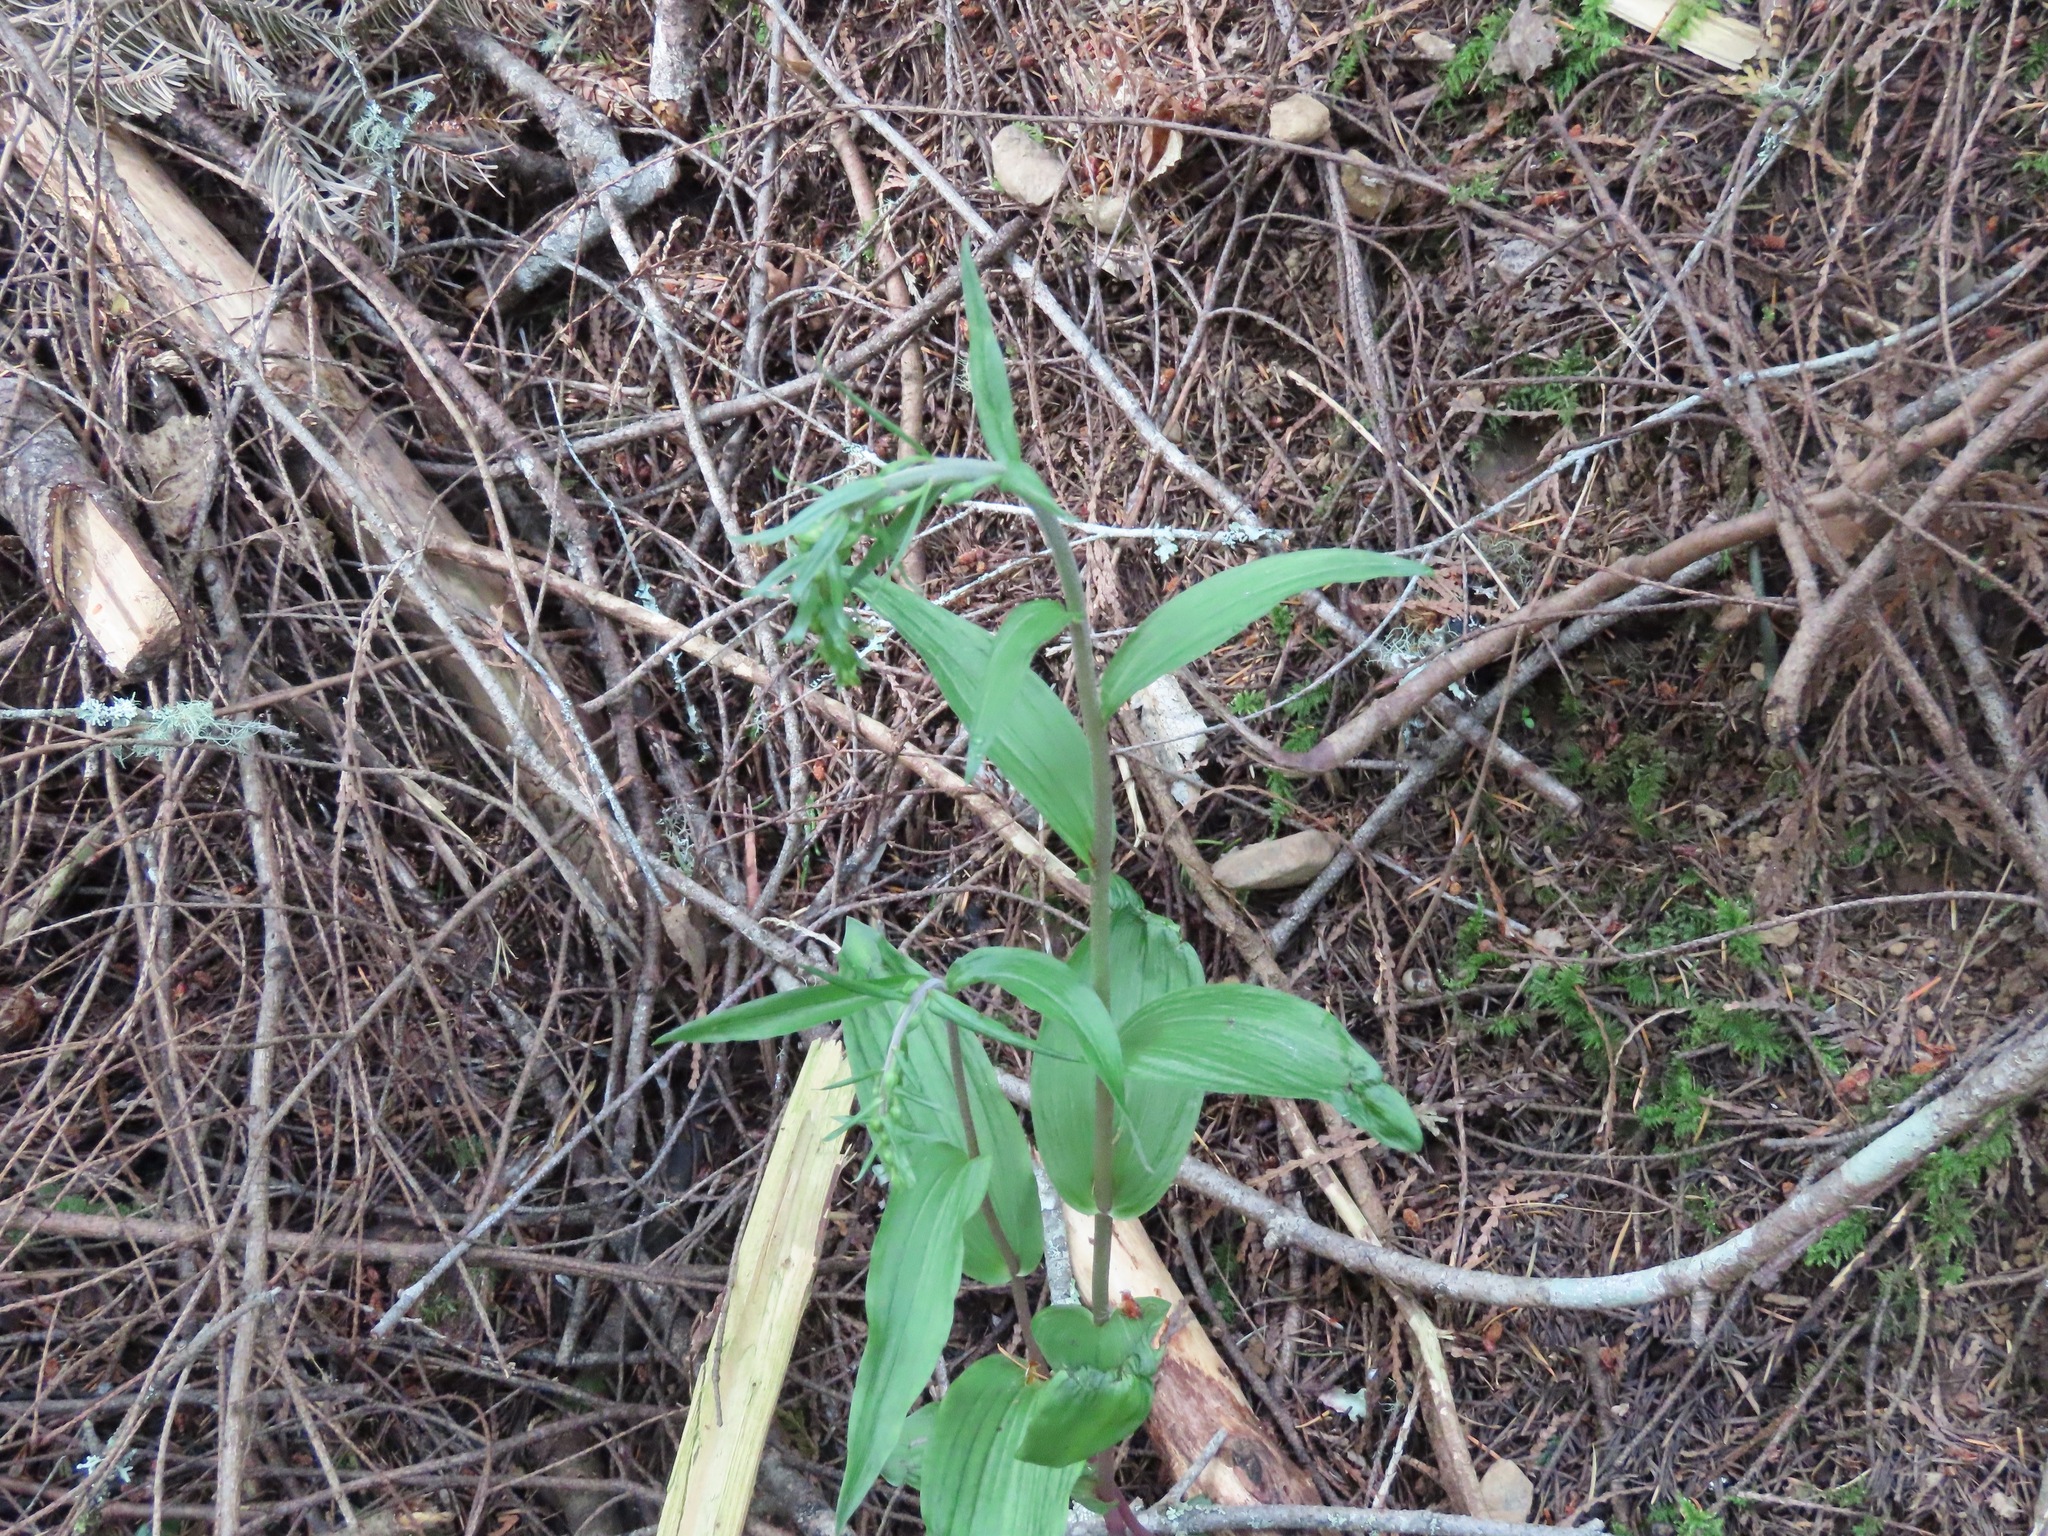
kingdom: Plantae
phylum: Tracheophyta
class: Liliopsida
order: Asparagales
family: Orchidaceae
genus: Epipactis
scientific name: Epipactis helleborine
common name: Broad-leaved helleborine
